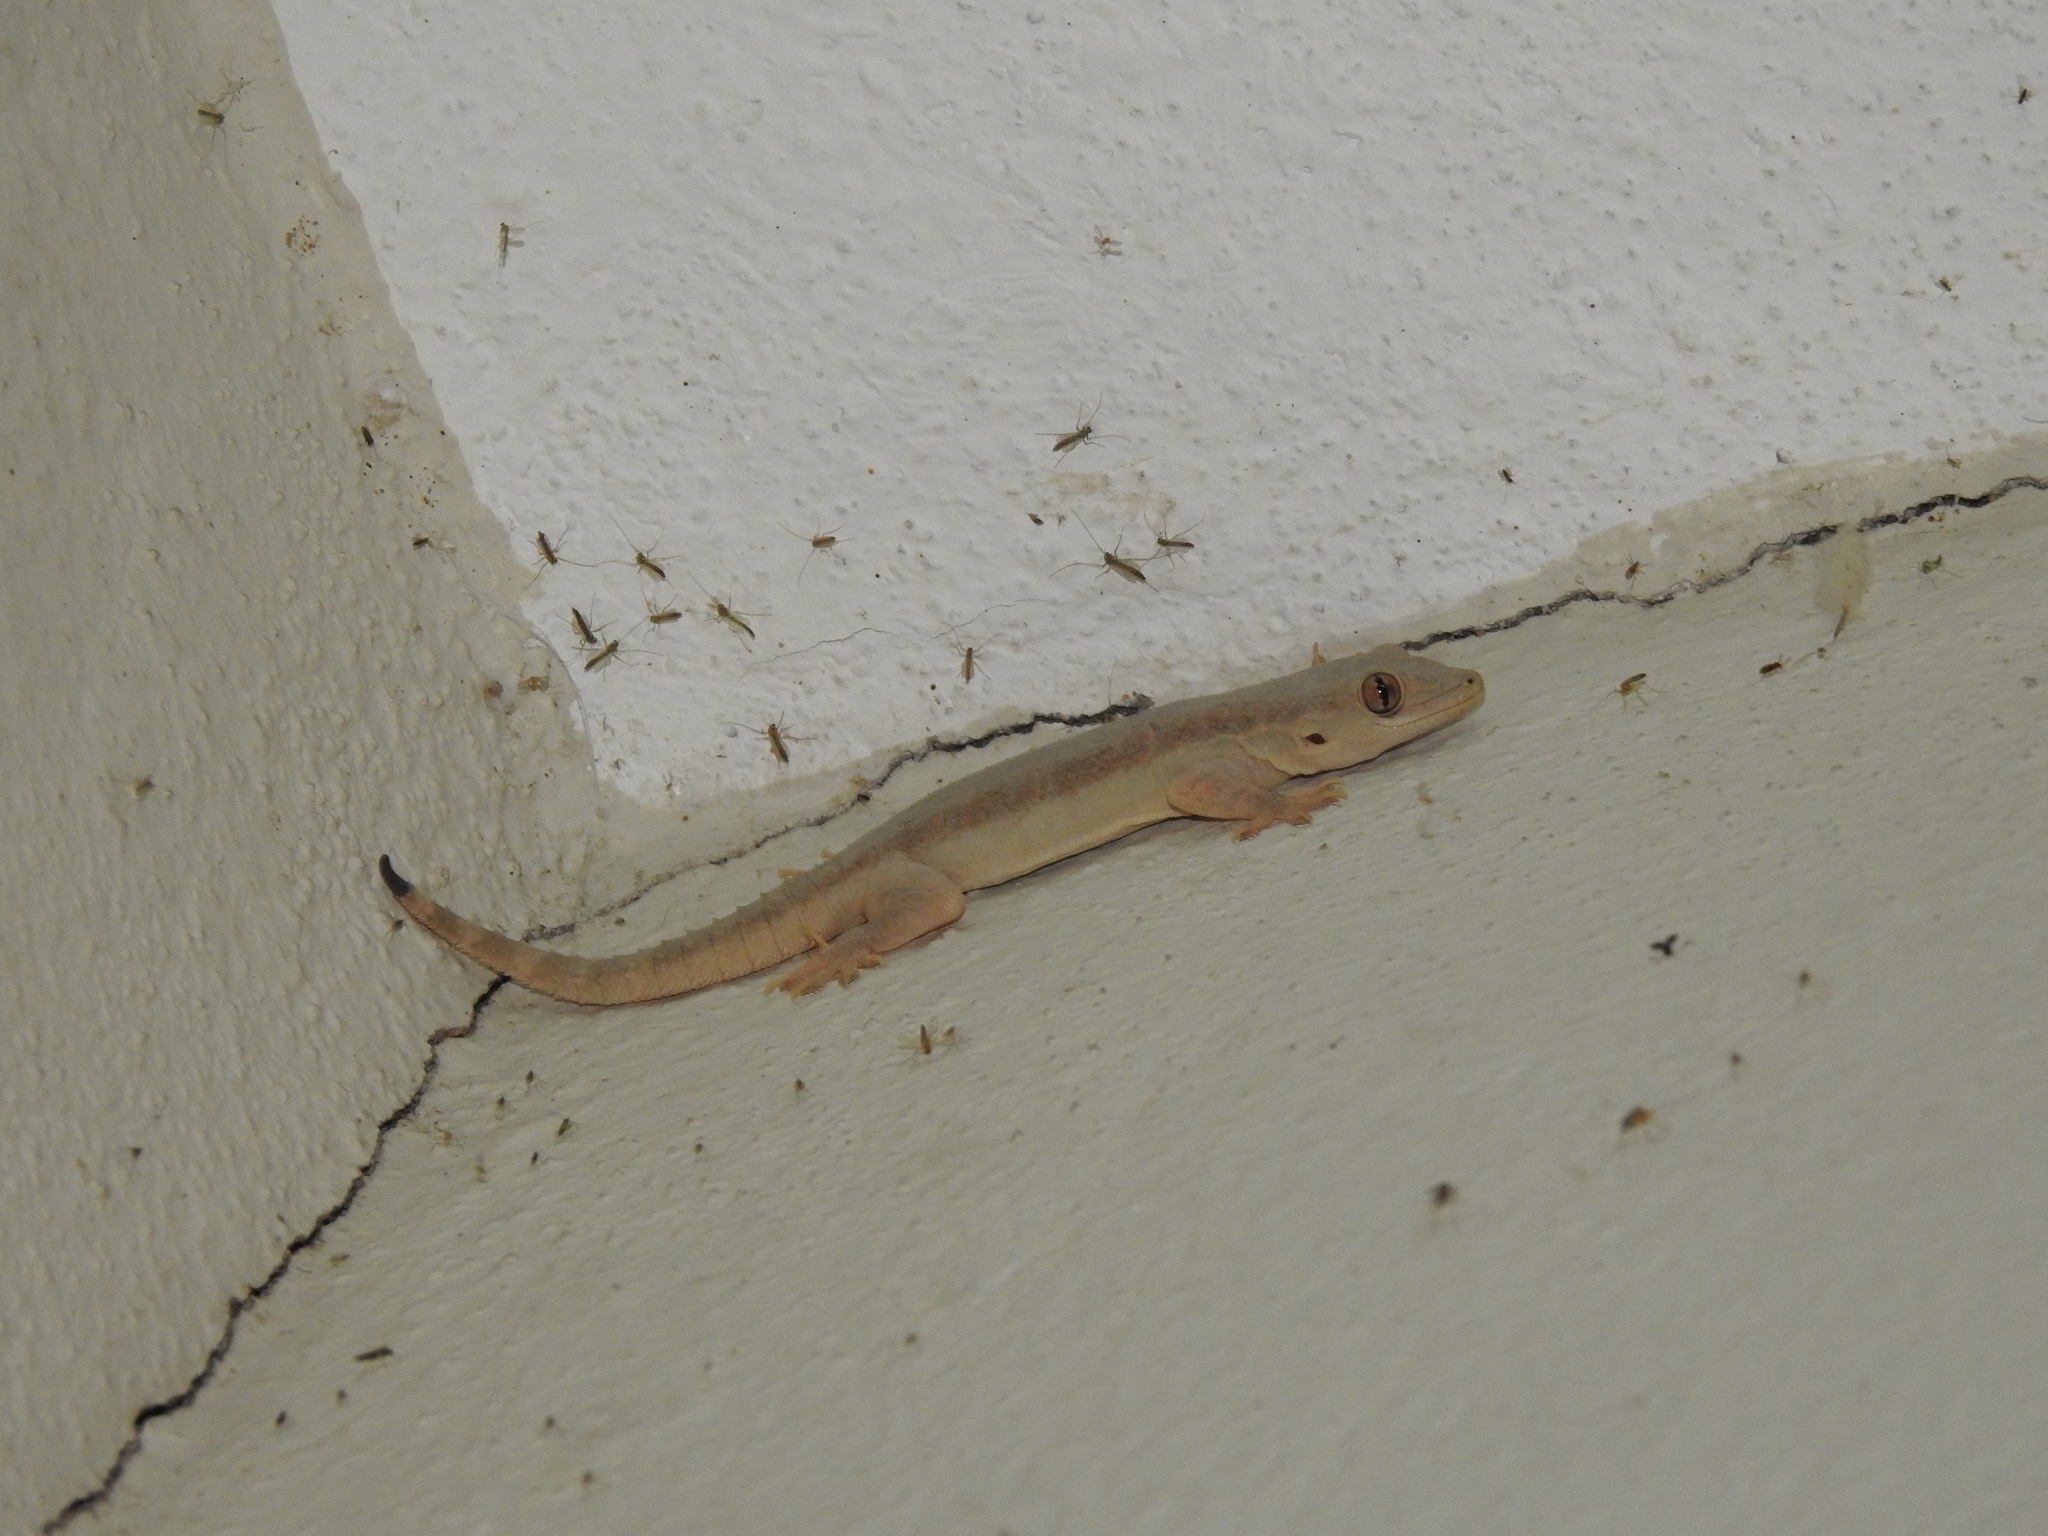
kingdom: Animalia
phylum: Chordata
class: Squamata
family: Gekkonidae
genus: Hemidactylus
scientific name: Hemidactylus frenatus
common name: Common house gecko
